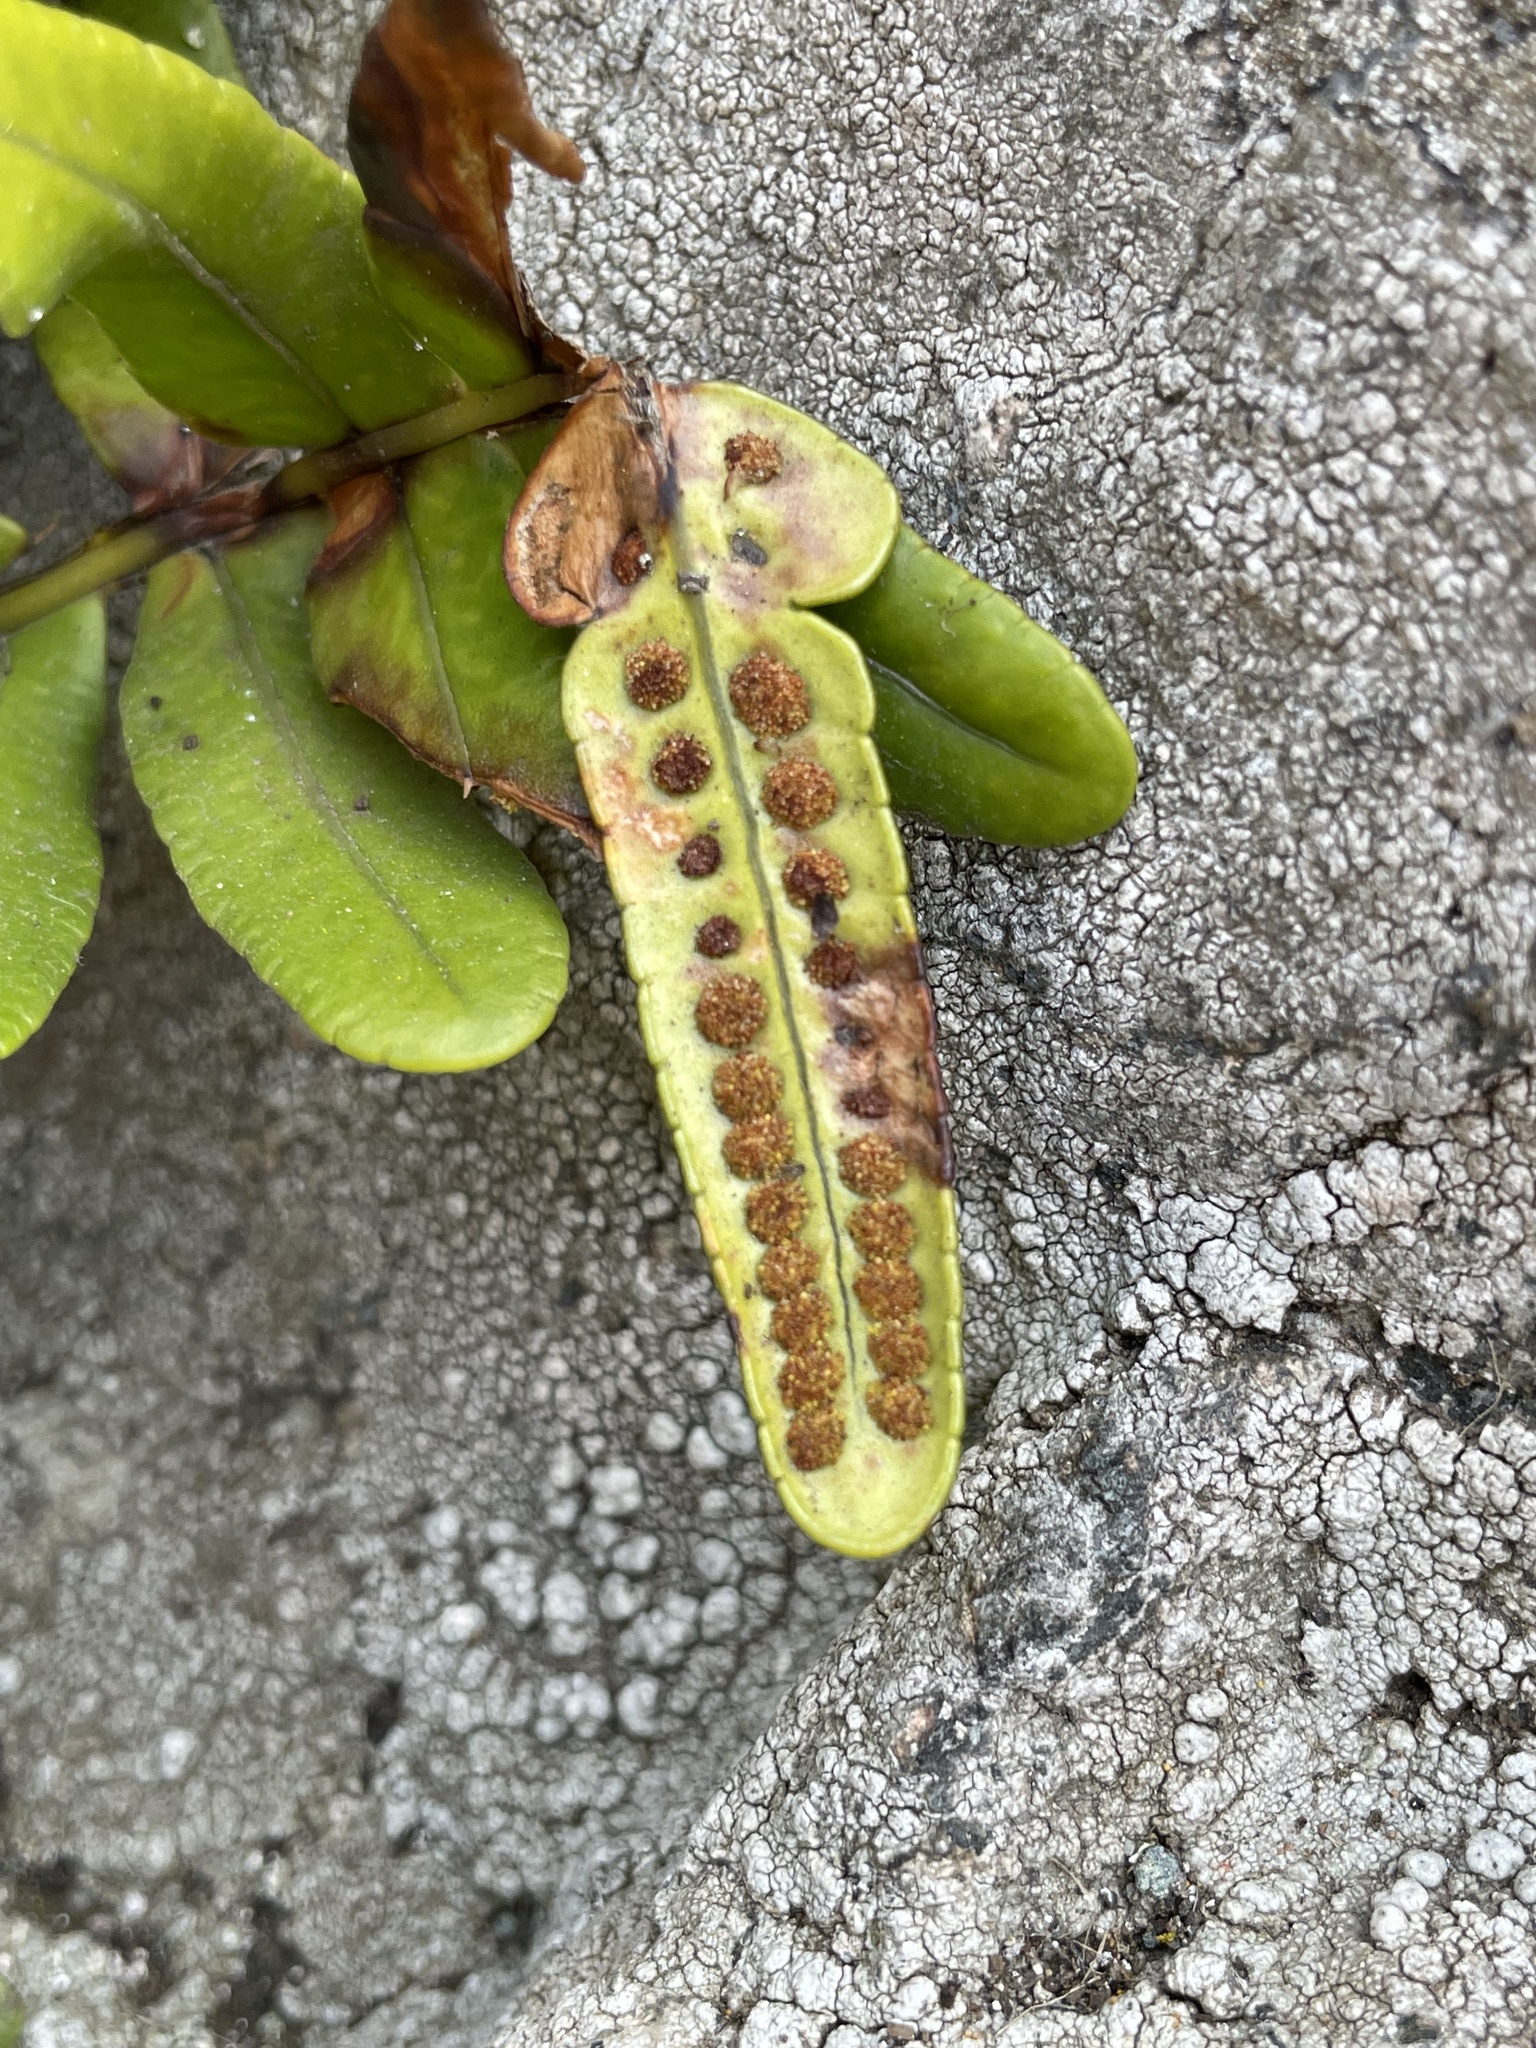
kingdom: Plantae
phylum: Tracheophyta
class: Polypodiopsida
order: Polypodiales
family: Polypodiaceae
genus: Polypodium
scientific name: Polypodium scouleri
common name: Scouler's polypody
